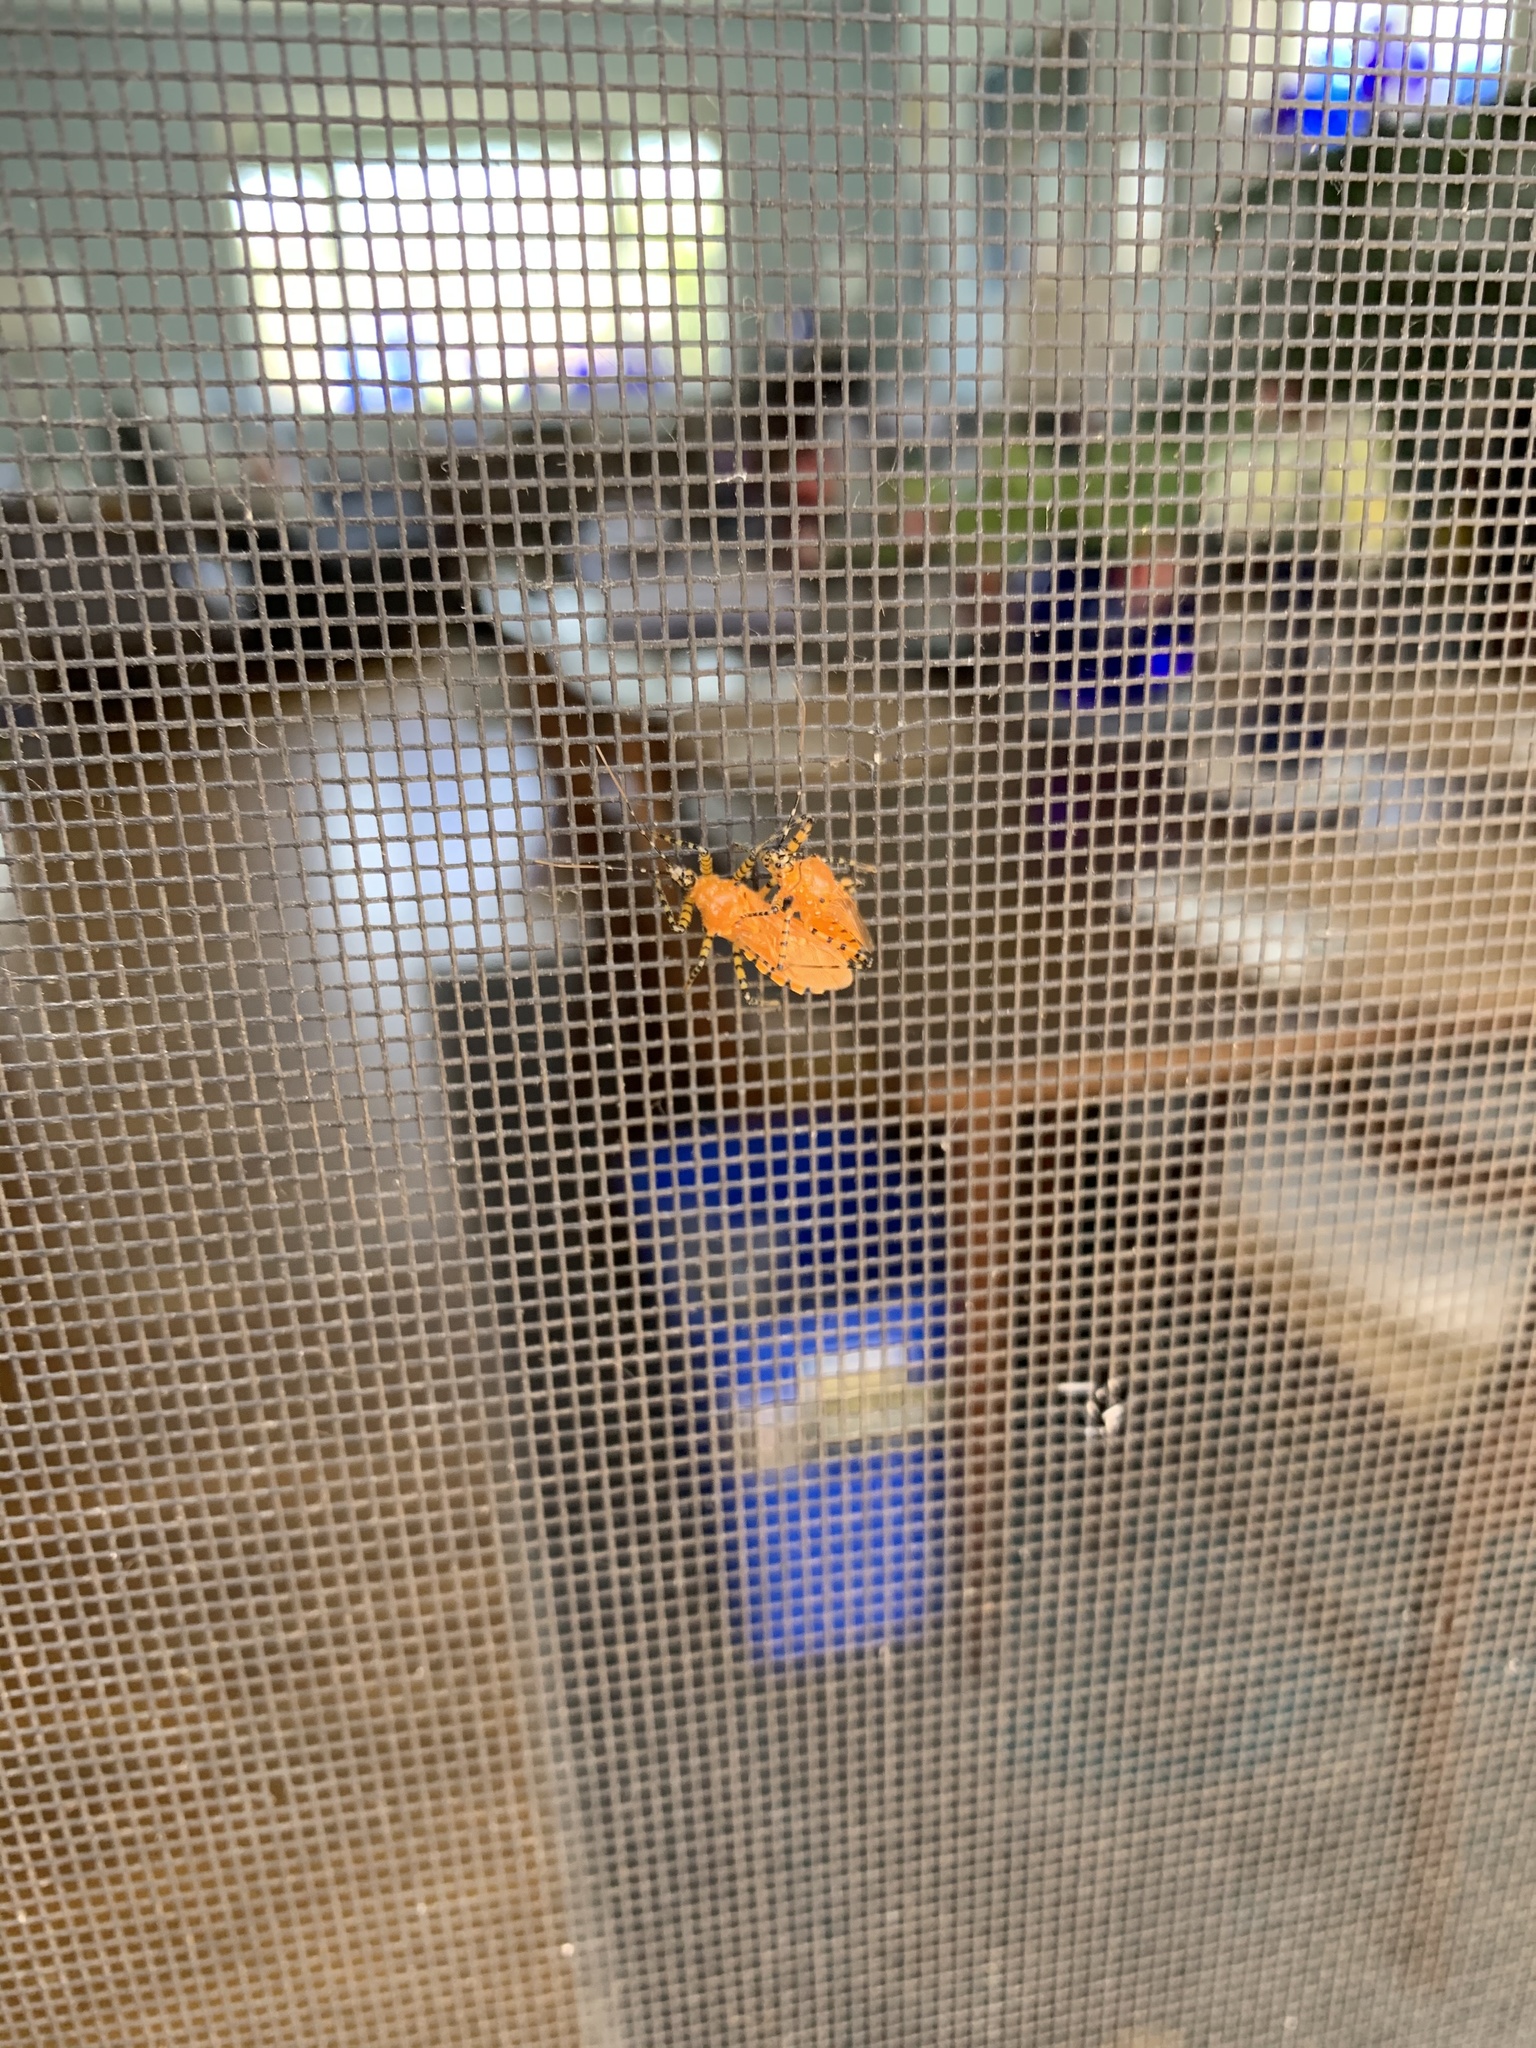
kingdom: Animalia
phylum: Arthropoda
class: Insecta
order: Hemiptera
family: Reduviidae
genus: Pselliopus
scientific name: Pselliopus barberi
